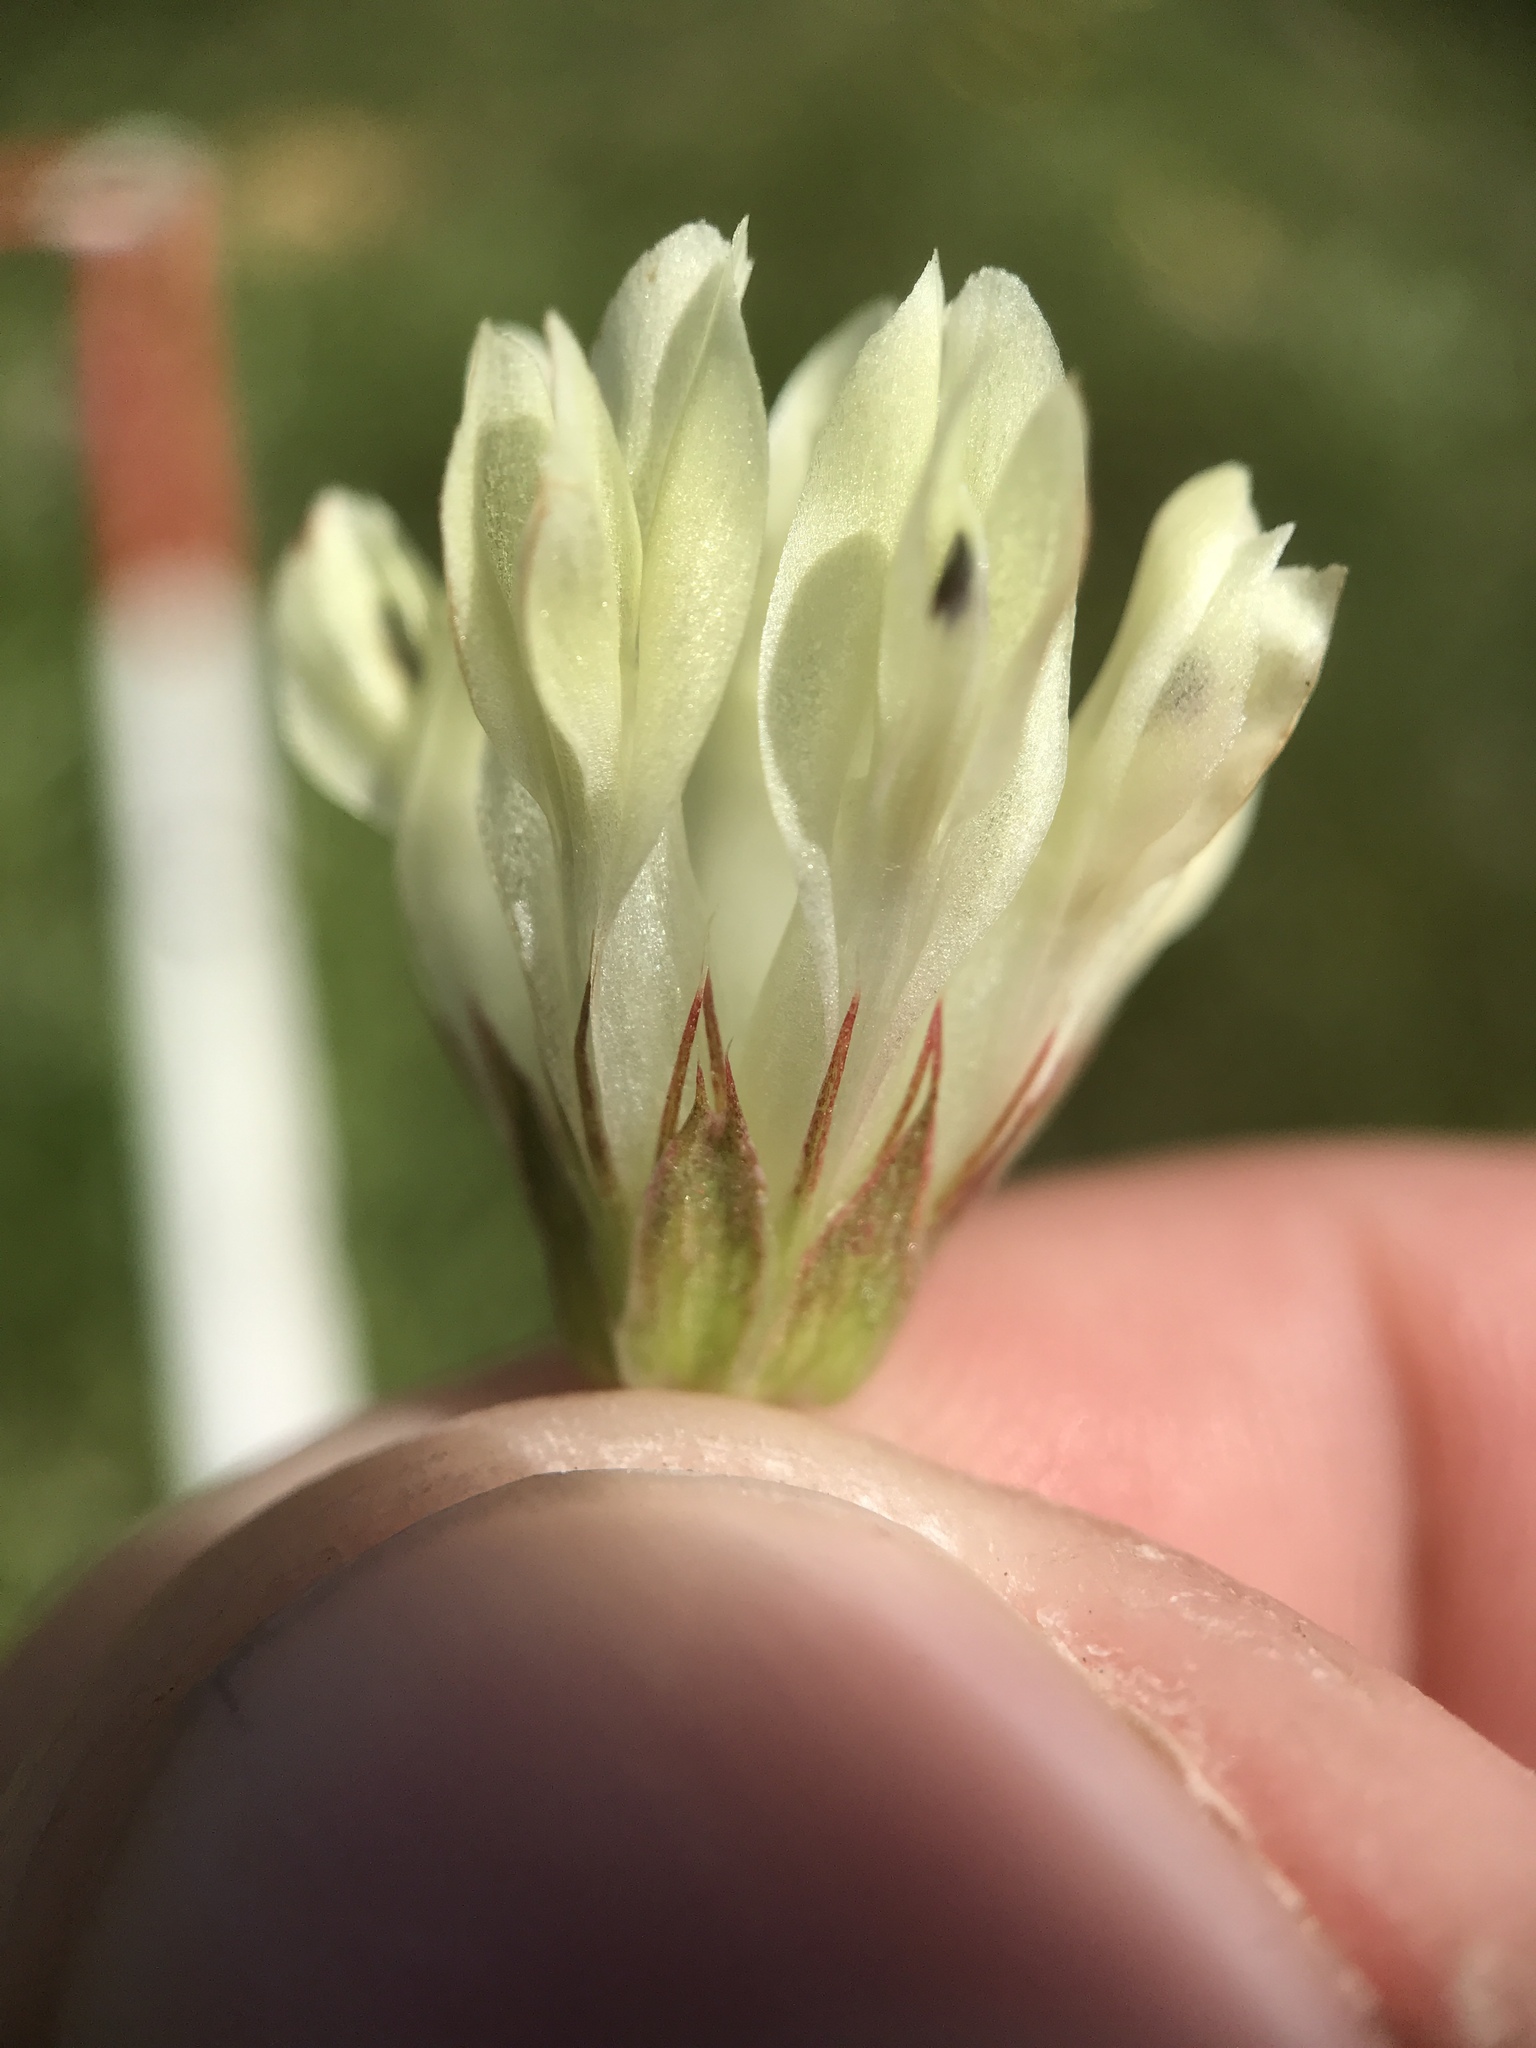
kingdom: Plantae
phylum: Tracheophyta
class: Magnoliopsida
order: Fabales
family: Fabaceae
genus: Trifolium
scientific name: Trifolium fucatum
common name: Puff clover
